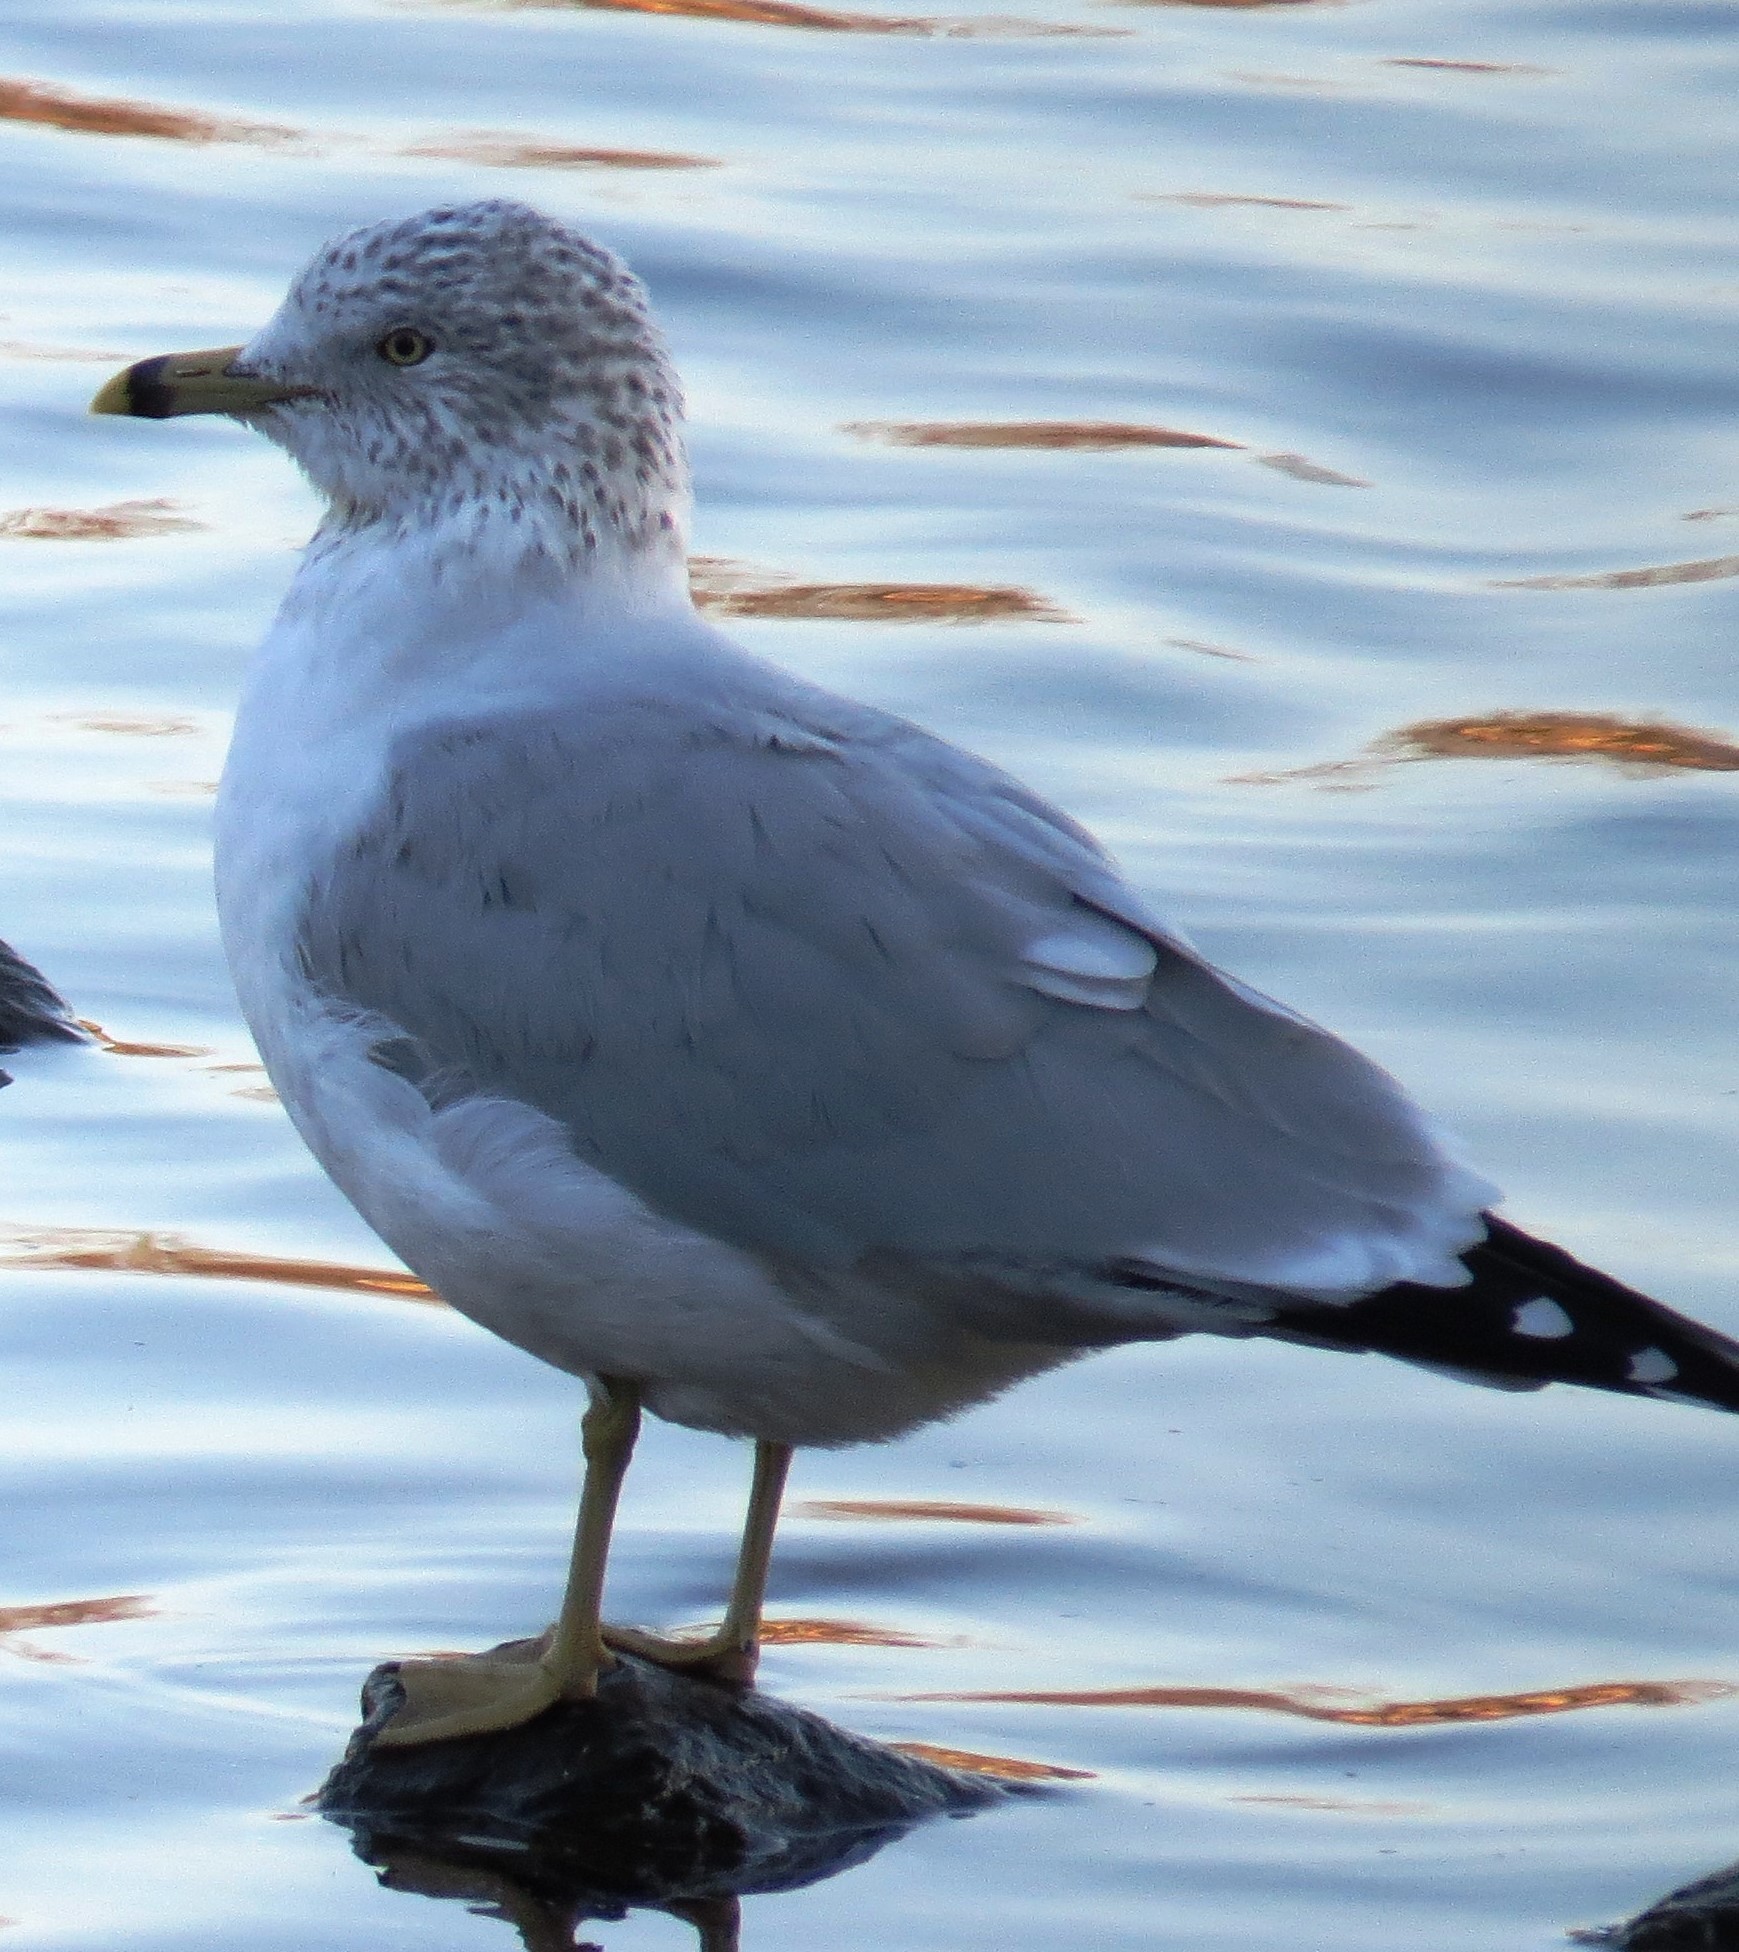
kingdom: Animalia
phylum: Chordata
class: Aves
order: Charadriiformes
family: Laridae
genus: Larus
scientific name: Larus delawarensis
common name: Ring-billed gull
